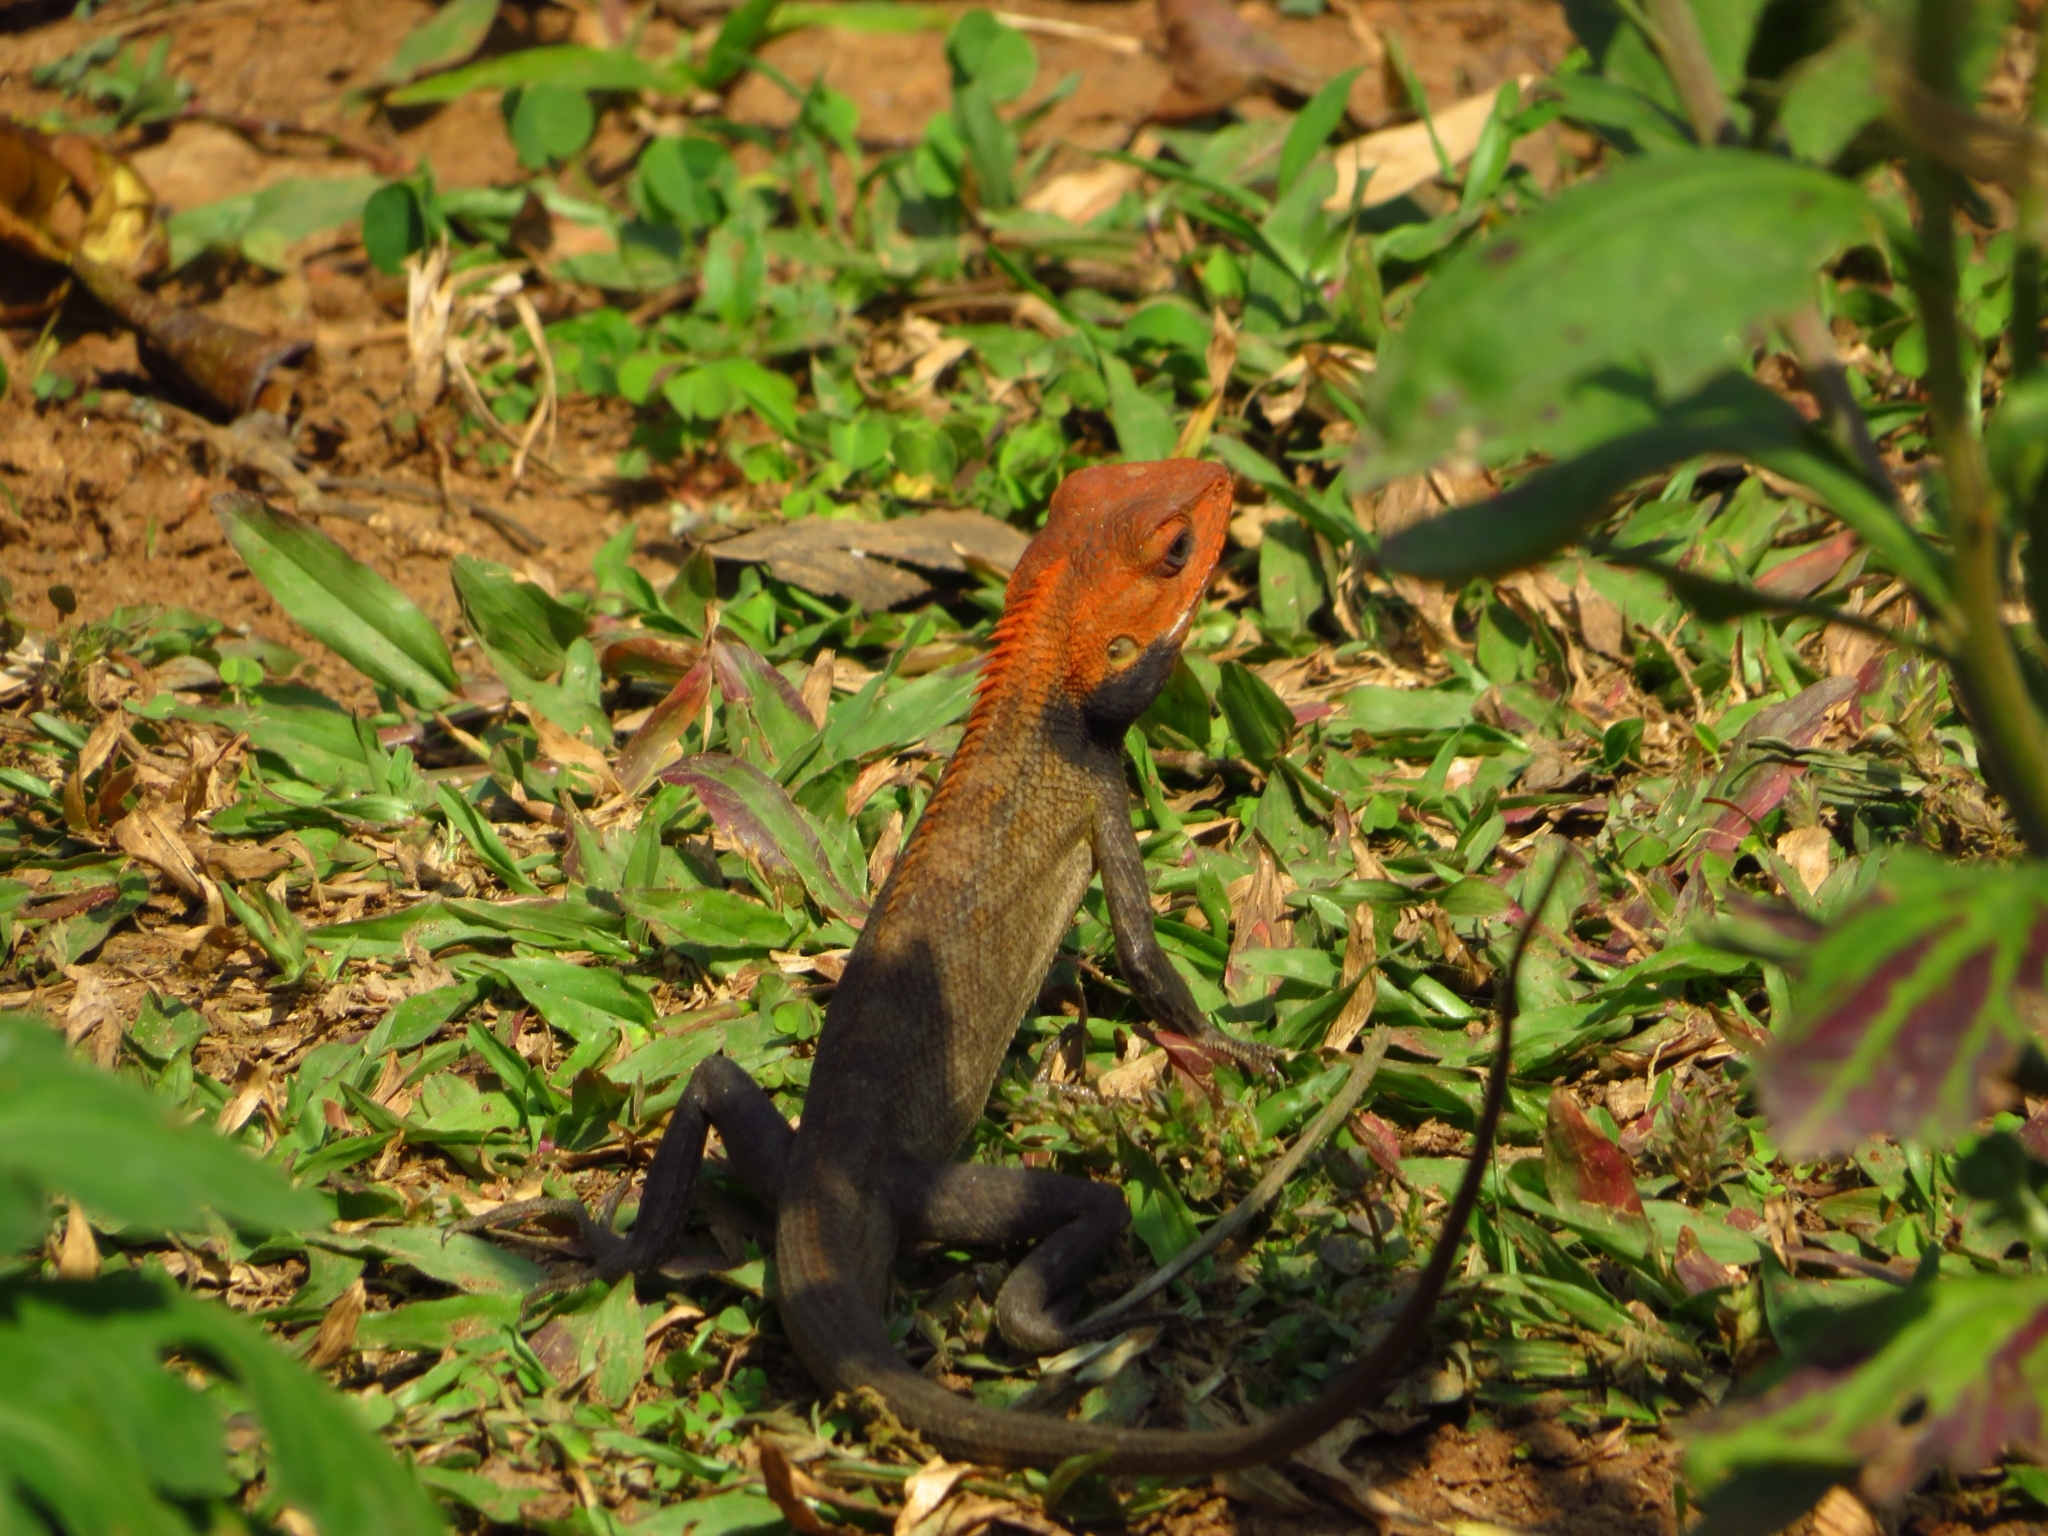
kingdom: Animalia
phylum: Chordata
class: Squamata
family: Agamidae
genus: Calotes
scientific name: Calotes versicolor
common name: Oriental garden lizard
